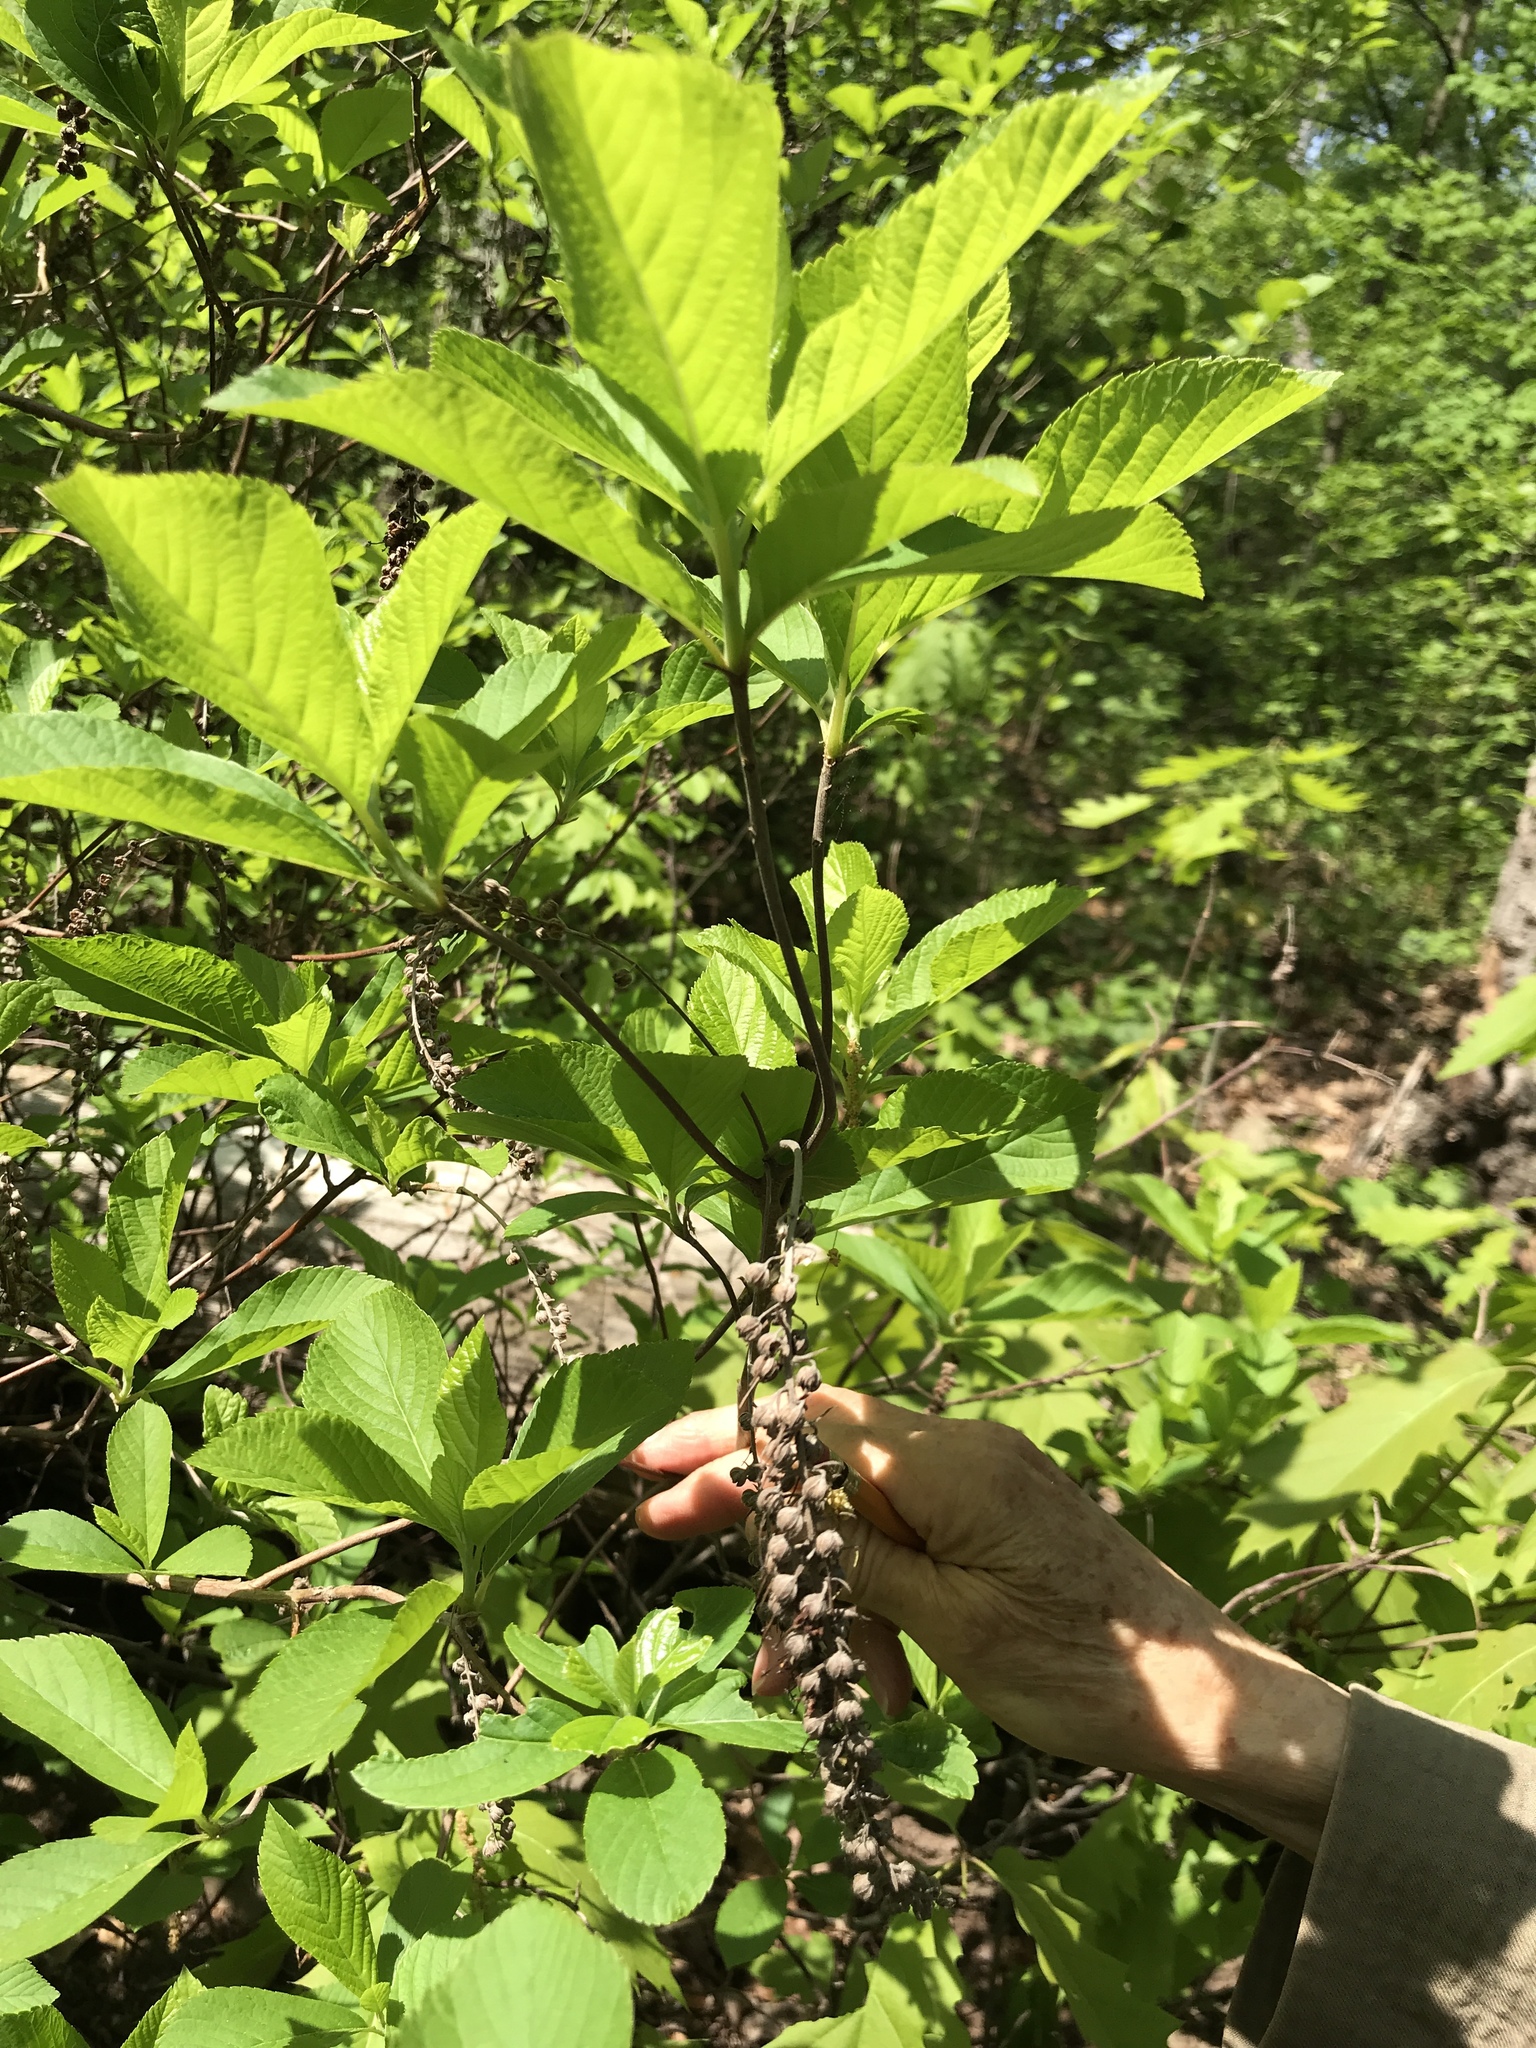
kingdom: Plantae
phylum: Tracheophyta
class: Magnoliopsida
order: Ericales
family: Clethraceae
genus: Clethra
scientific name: Clethra alnifolia
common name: Sweet pepperbush
